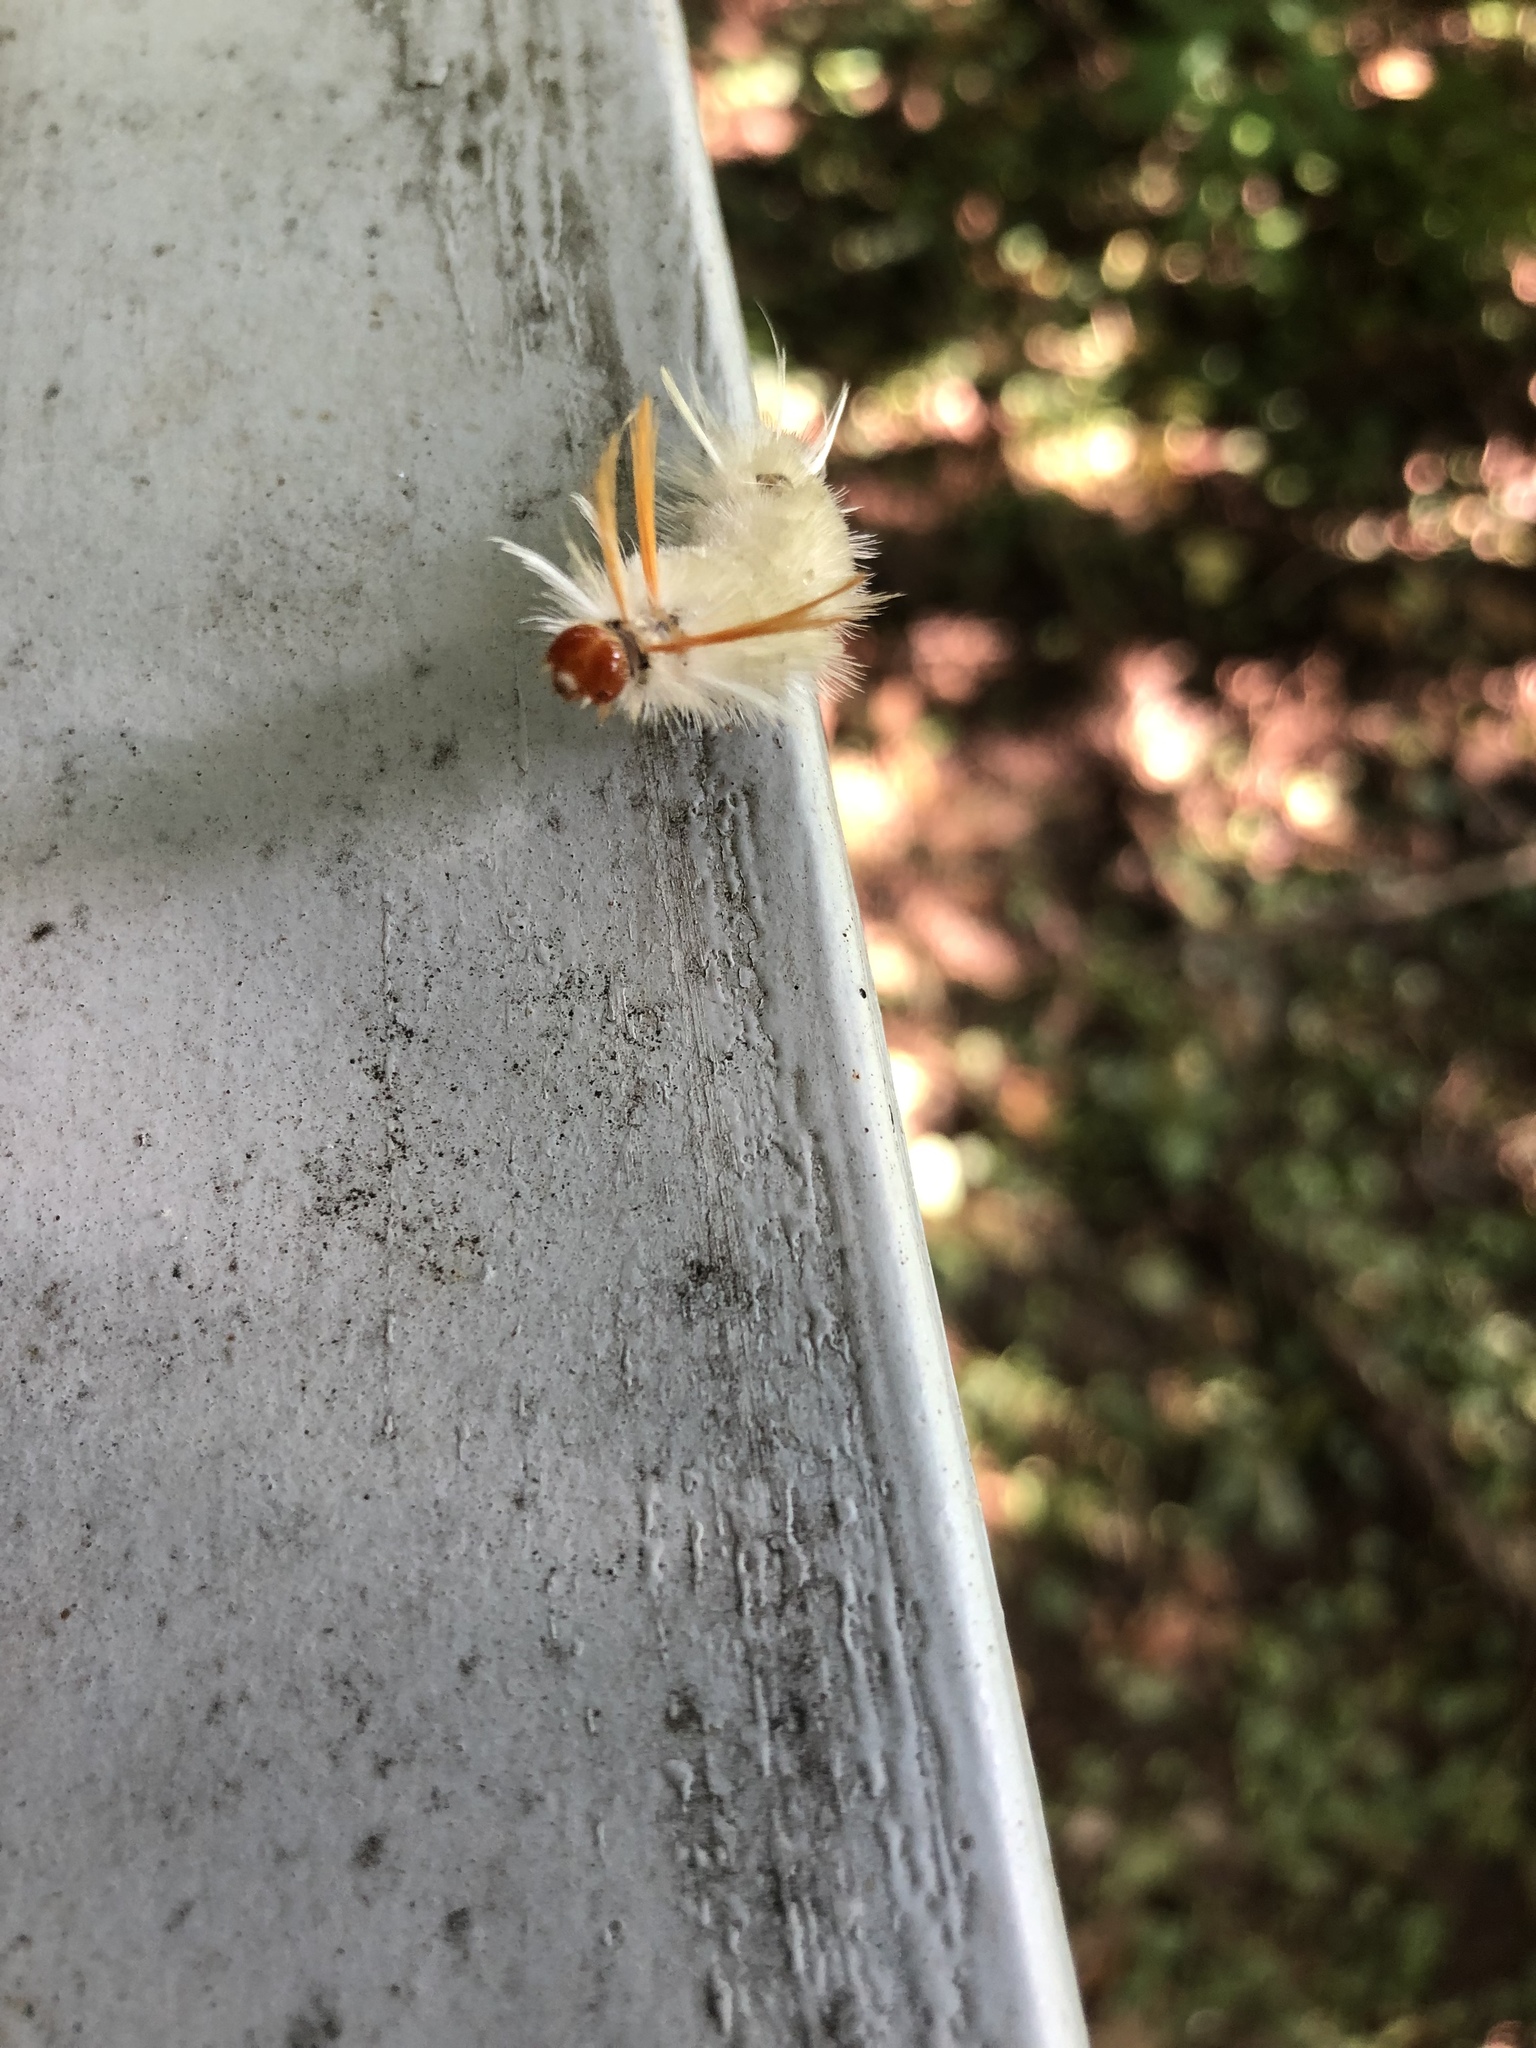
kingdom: Animalia
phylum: Arthropoda
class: Insecta
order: Lepidoptera
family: Erebidae
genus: Halysidota
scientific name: Halysidota harrisii
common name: Sycamore tussock moth
